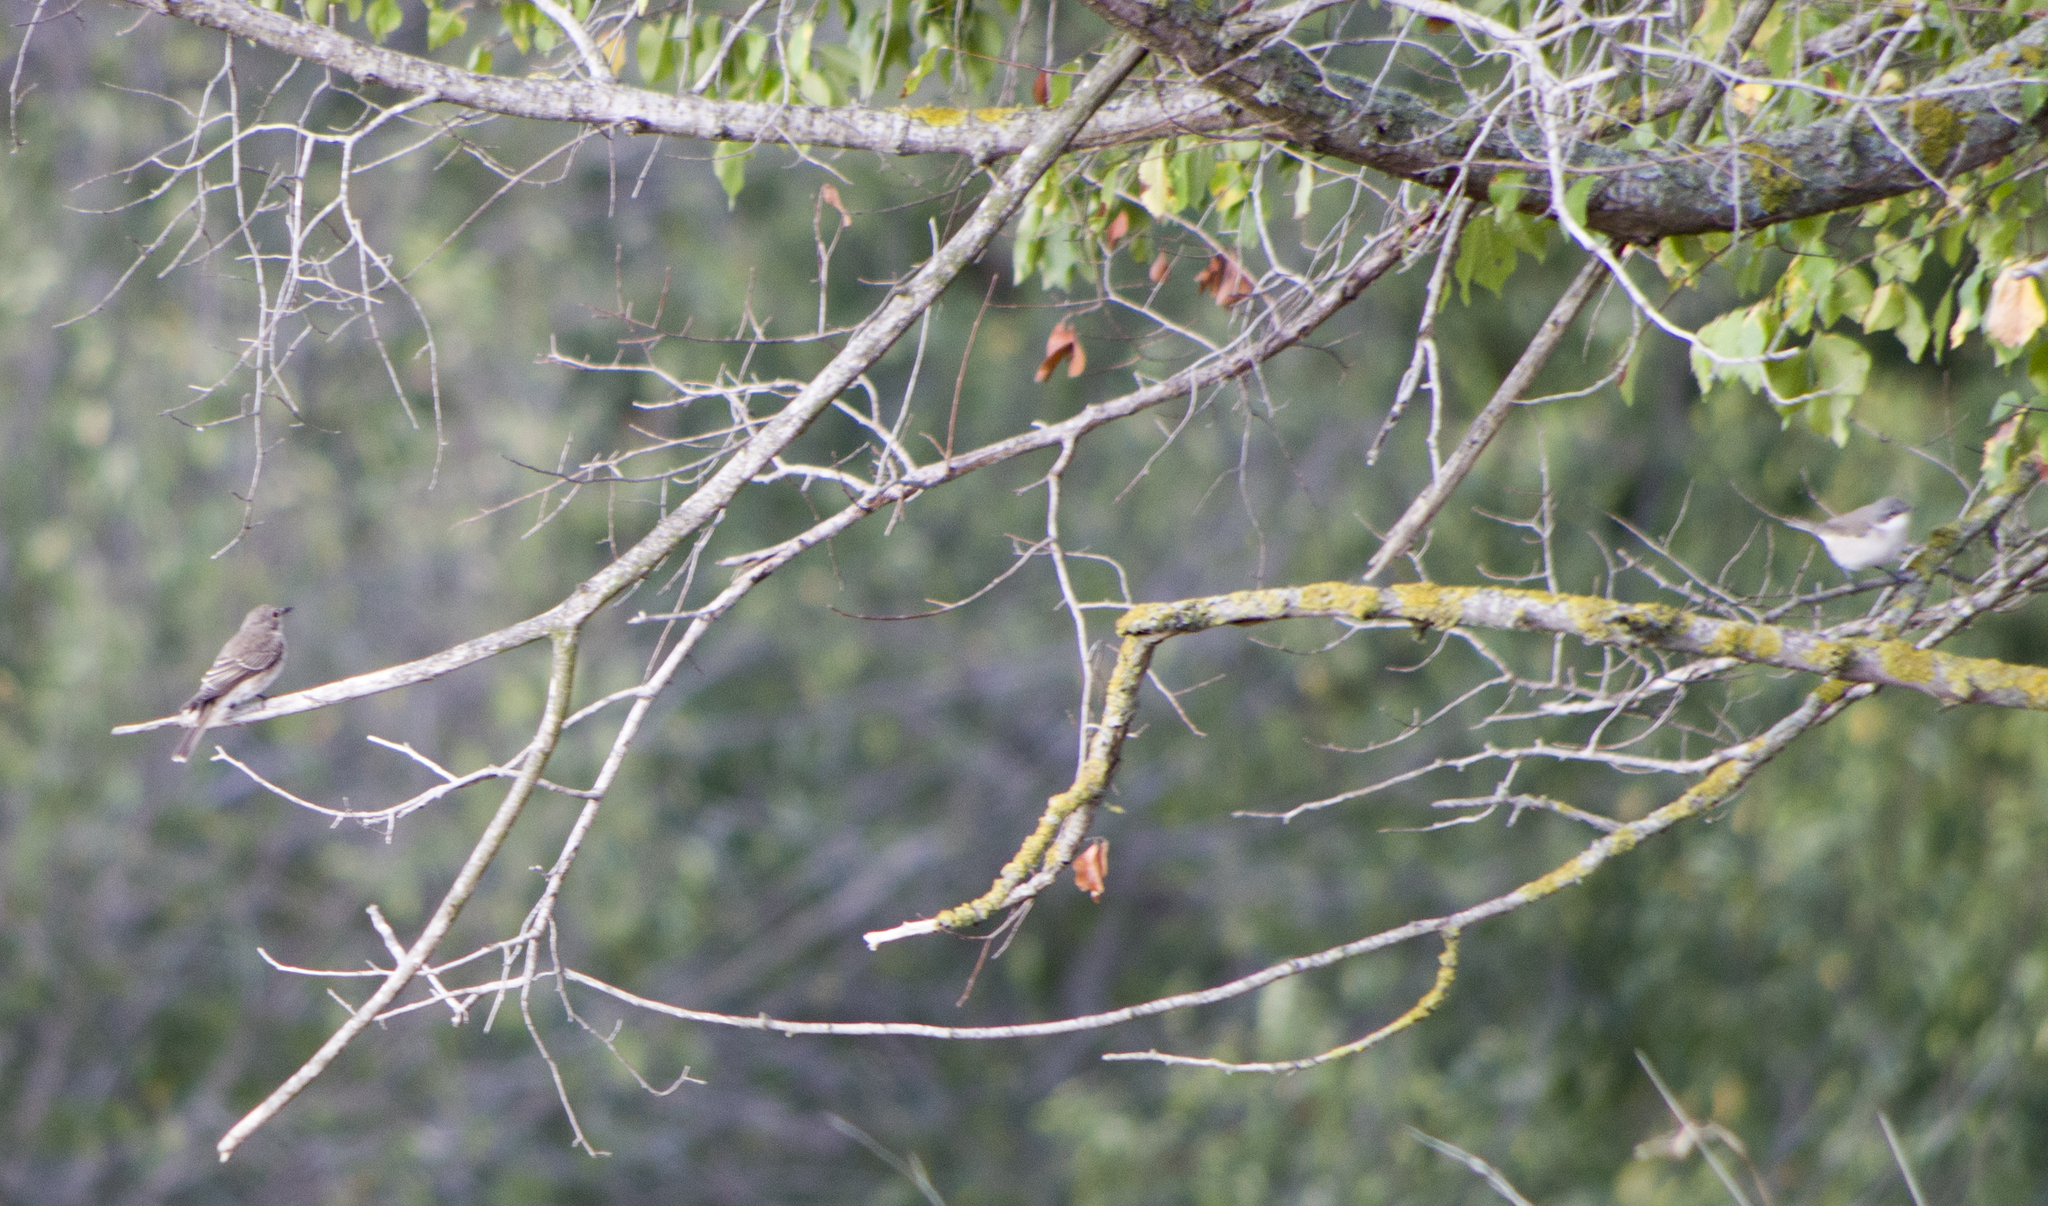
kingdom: Animalia
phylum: Chordata
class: Aves
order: Passeriformes
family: Muscicapidae
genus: Muscicapa
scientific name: Muscicapa striata
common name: Spotted flycatcher
